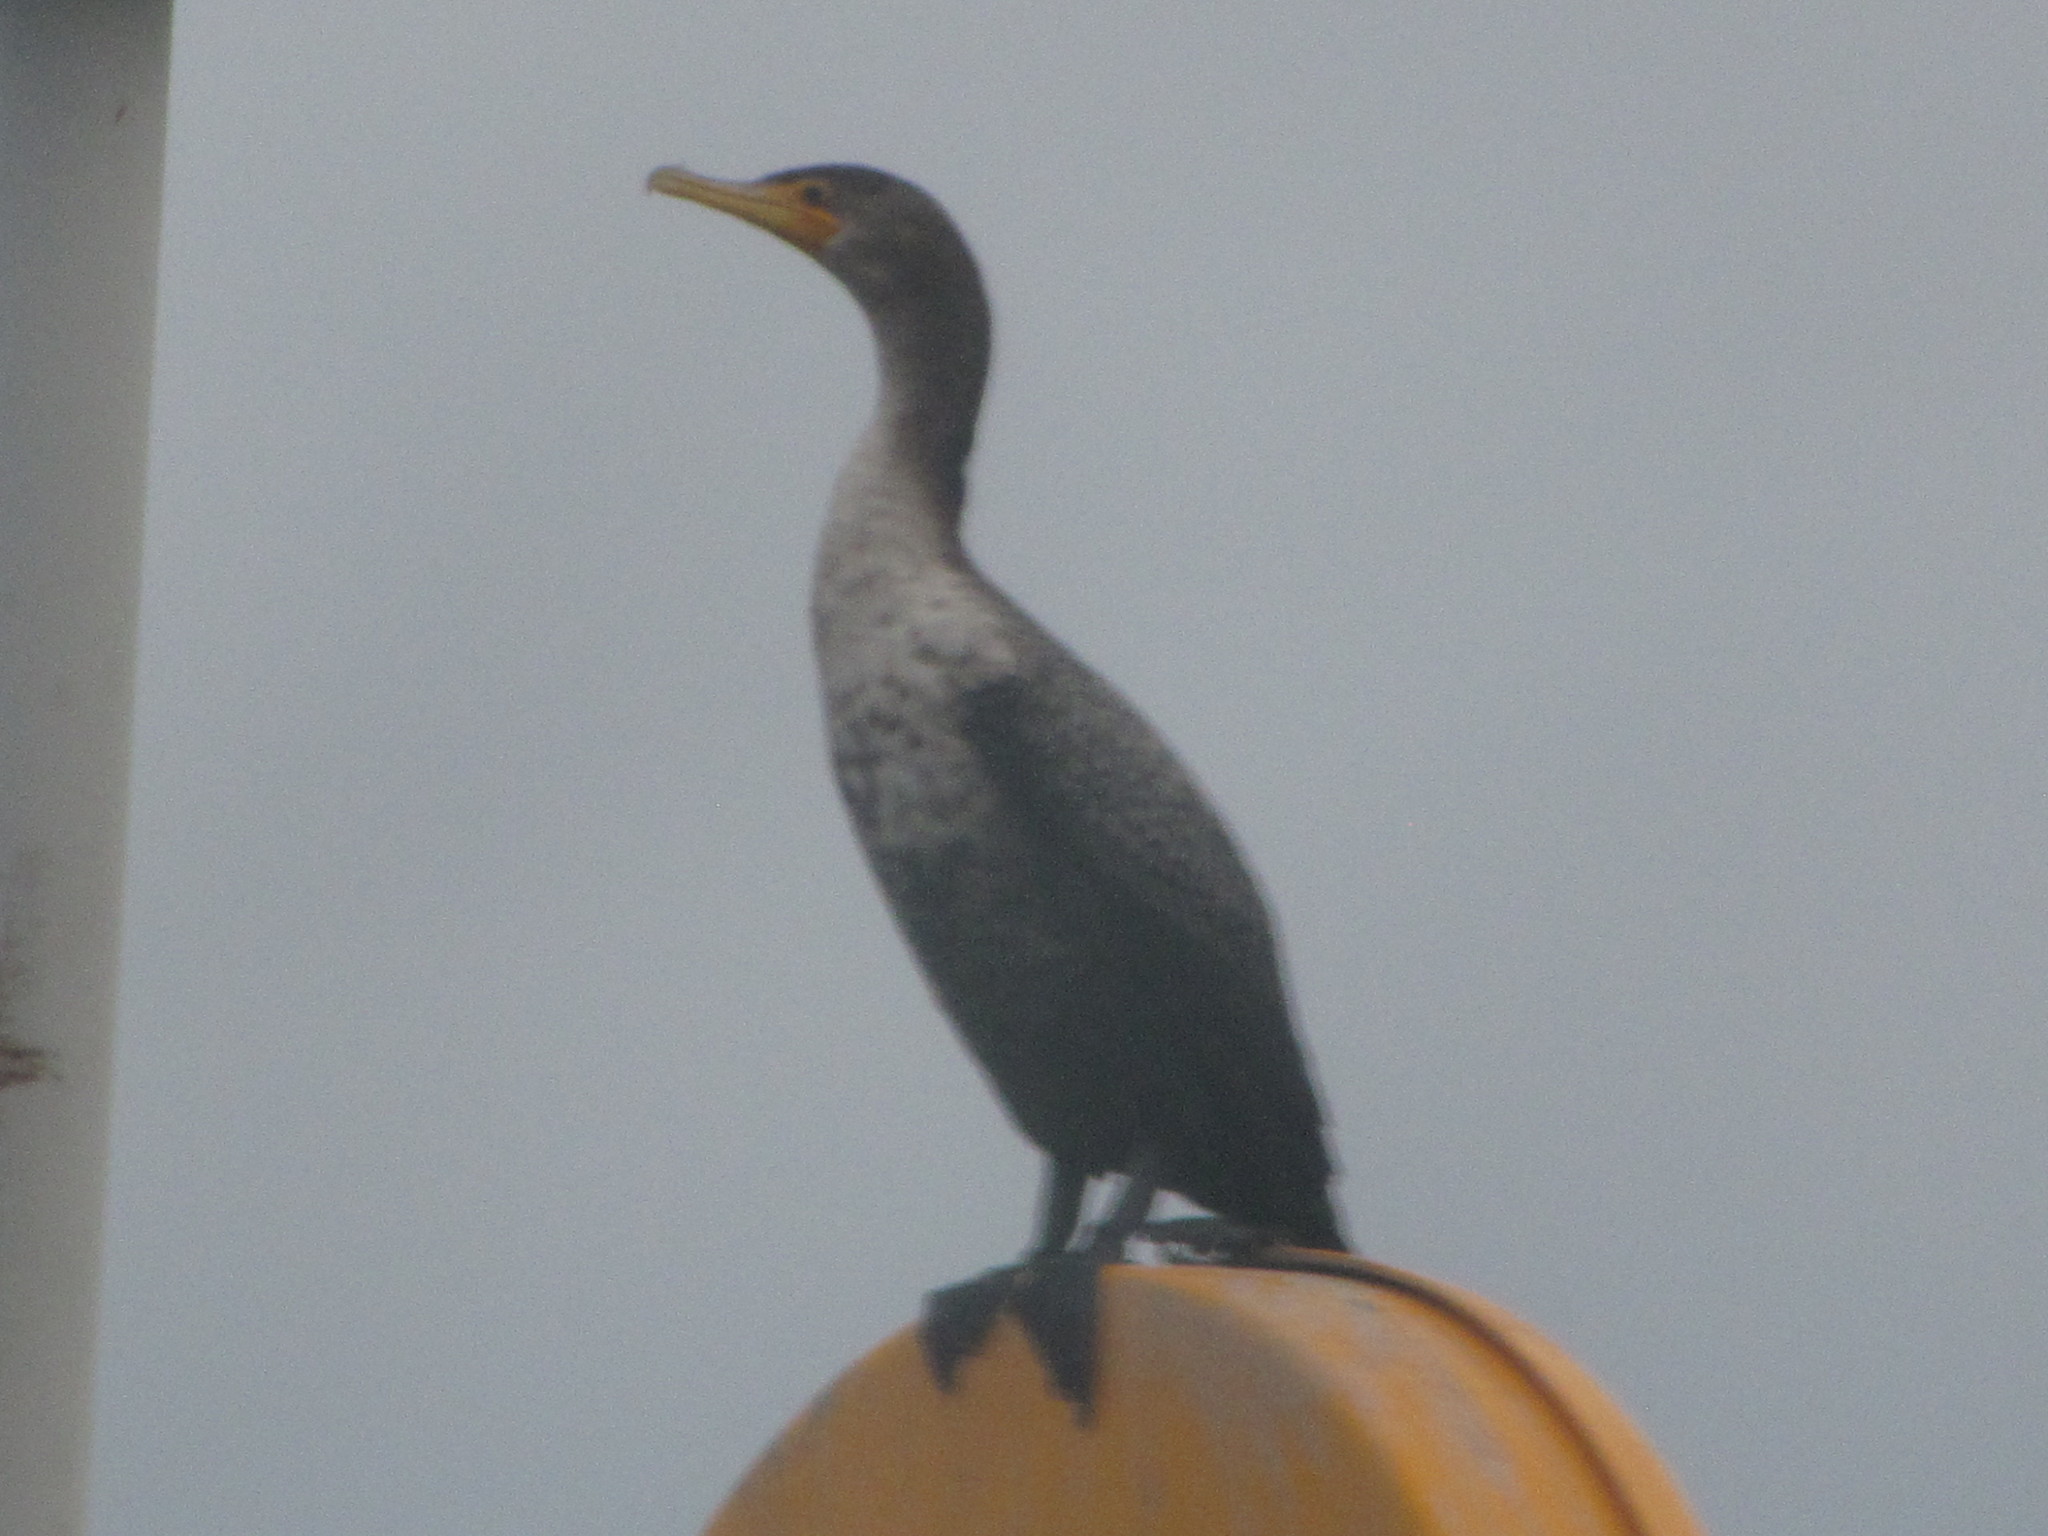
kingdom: Animalia
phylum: Chordata
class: Aves
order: Suliformes
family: Phalacrocoracidae
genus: Phalacrocorax
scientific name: Phalacrocorax auritus
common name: Double-crested cormorant
